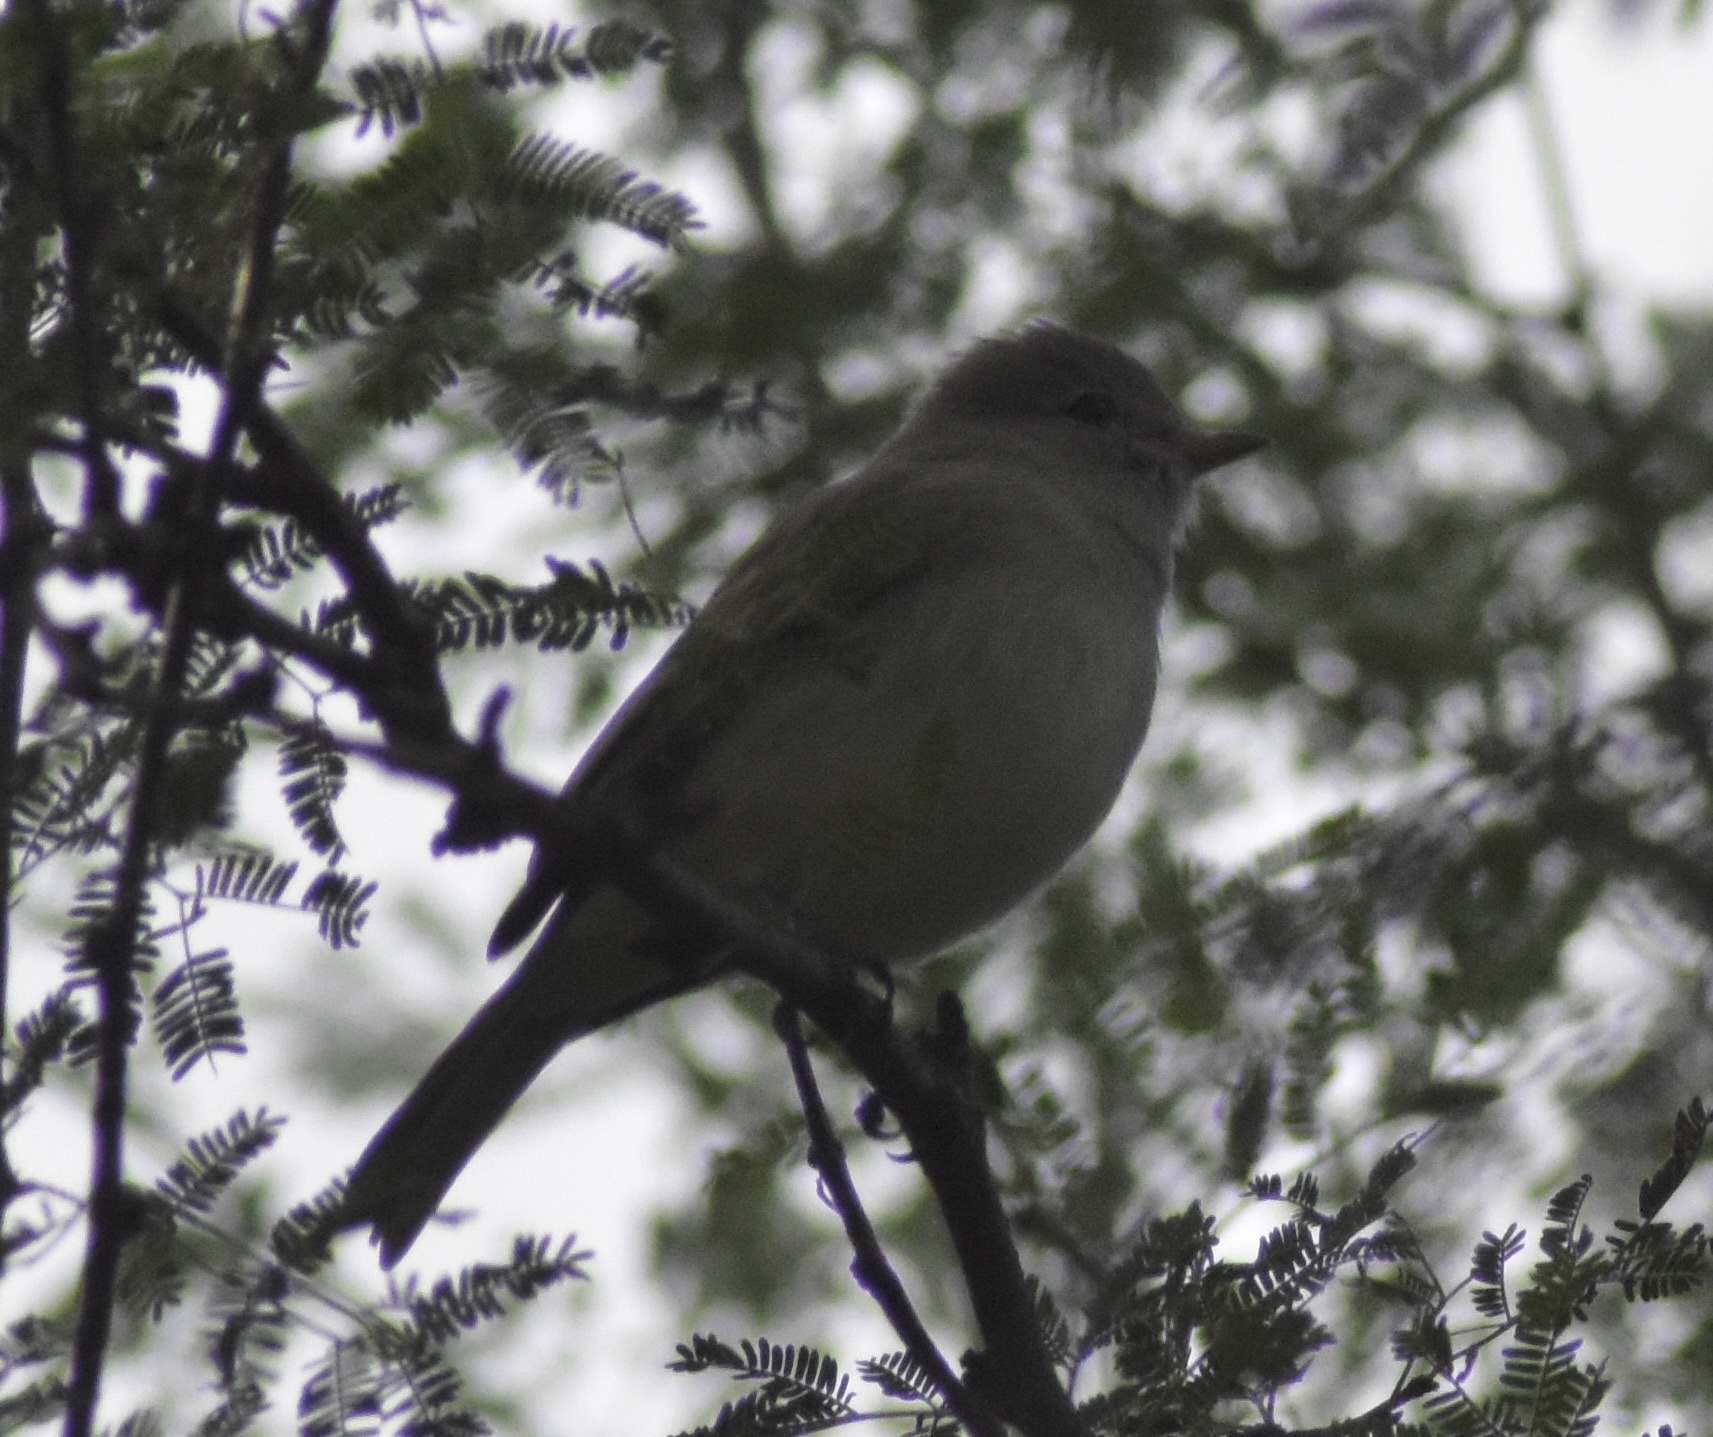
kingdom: Animalia
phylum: Chordata
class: Aves
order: Passeriformes
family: Tyrannidae
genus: Camptostoma
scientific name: Camptostoma imberbe
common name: Northern beardless-tyrannulet
